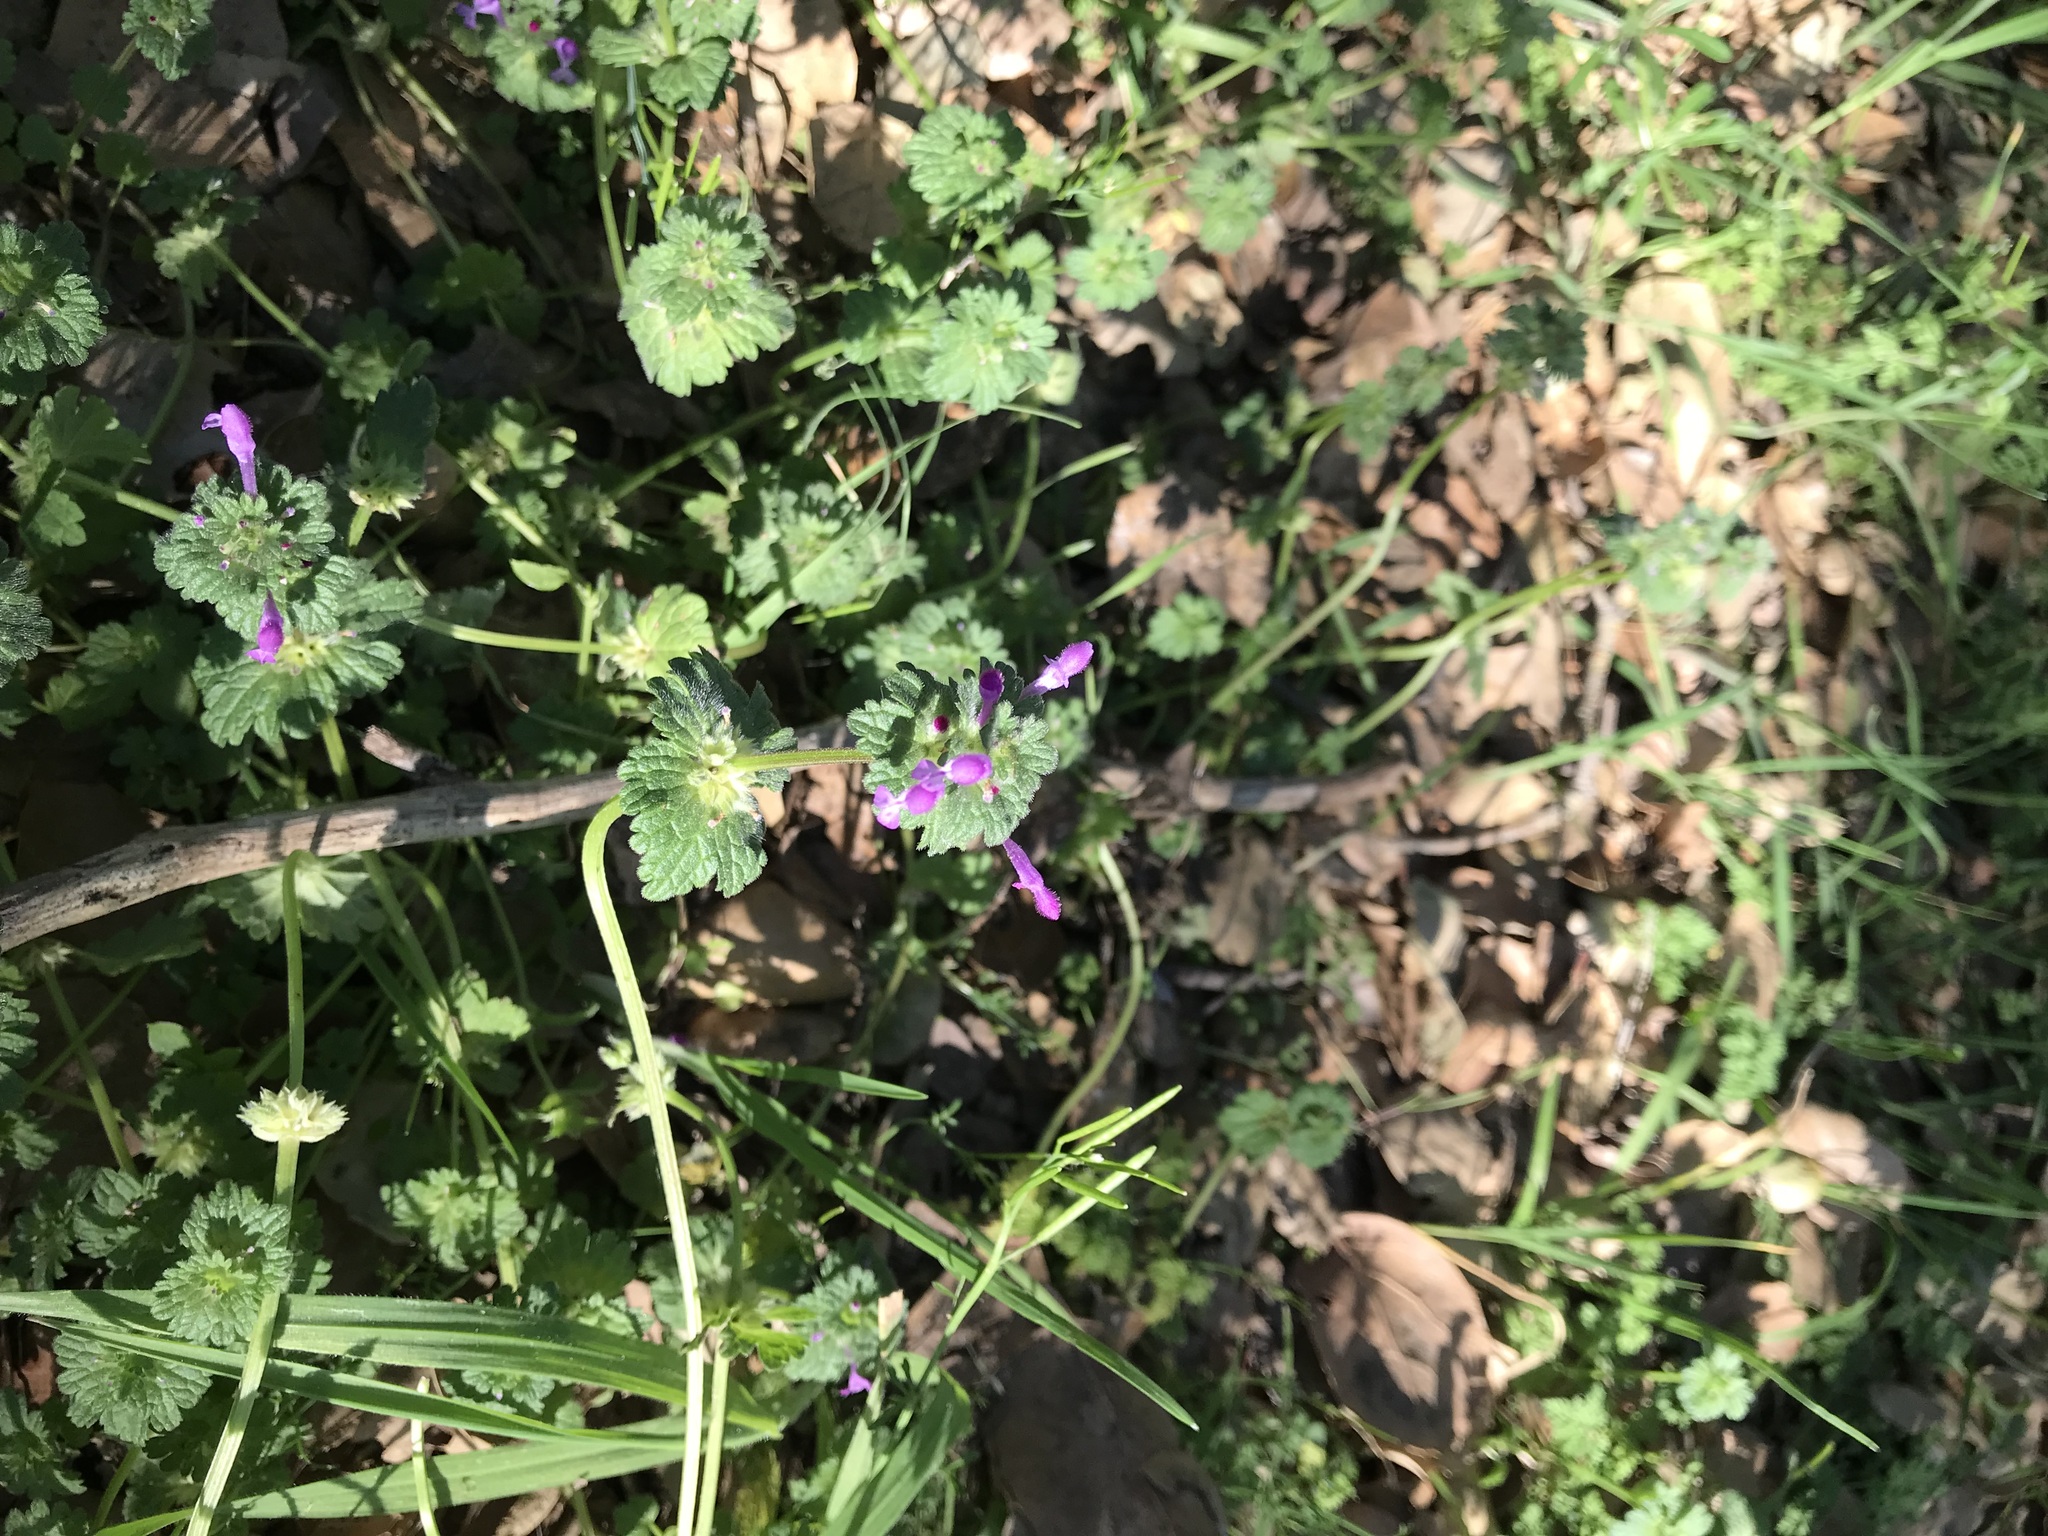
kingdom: Plantae
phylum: Tracheophyta
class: Magnoliopsida
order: Lamiales
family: Lamiaceae
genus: Lamium
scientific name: Lamium amplexicaule
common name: Henbit dead-nettle
